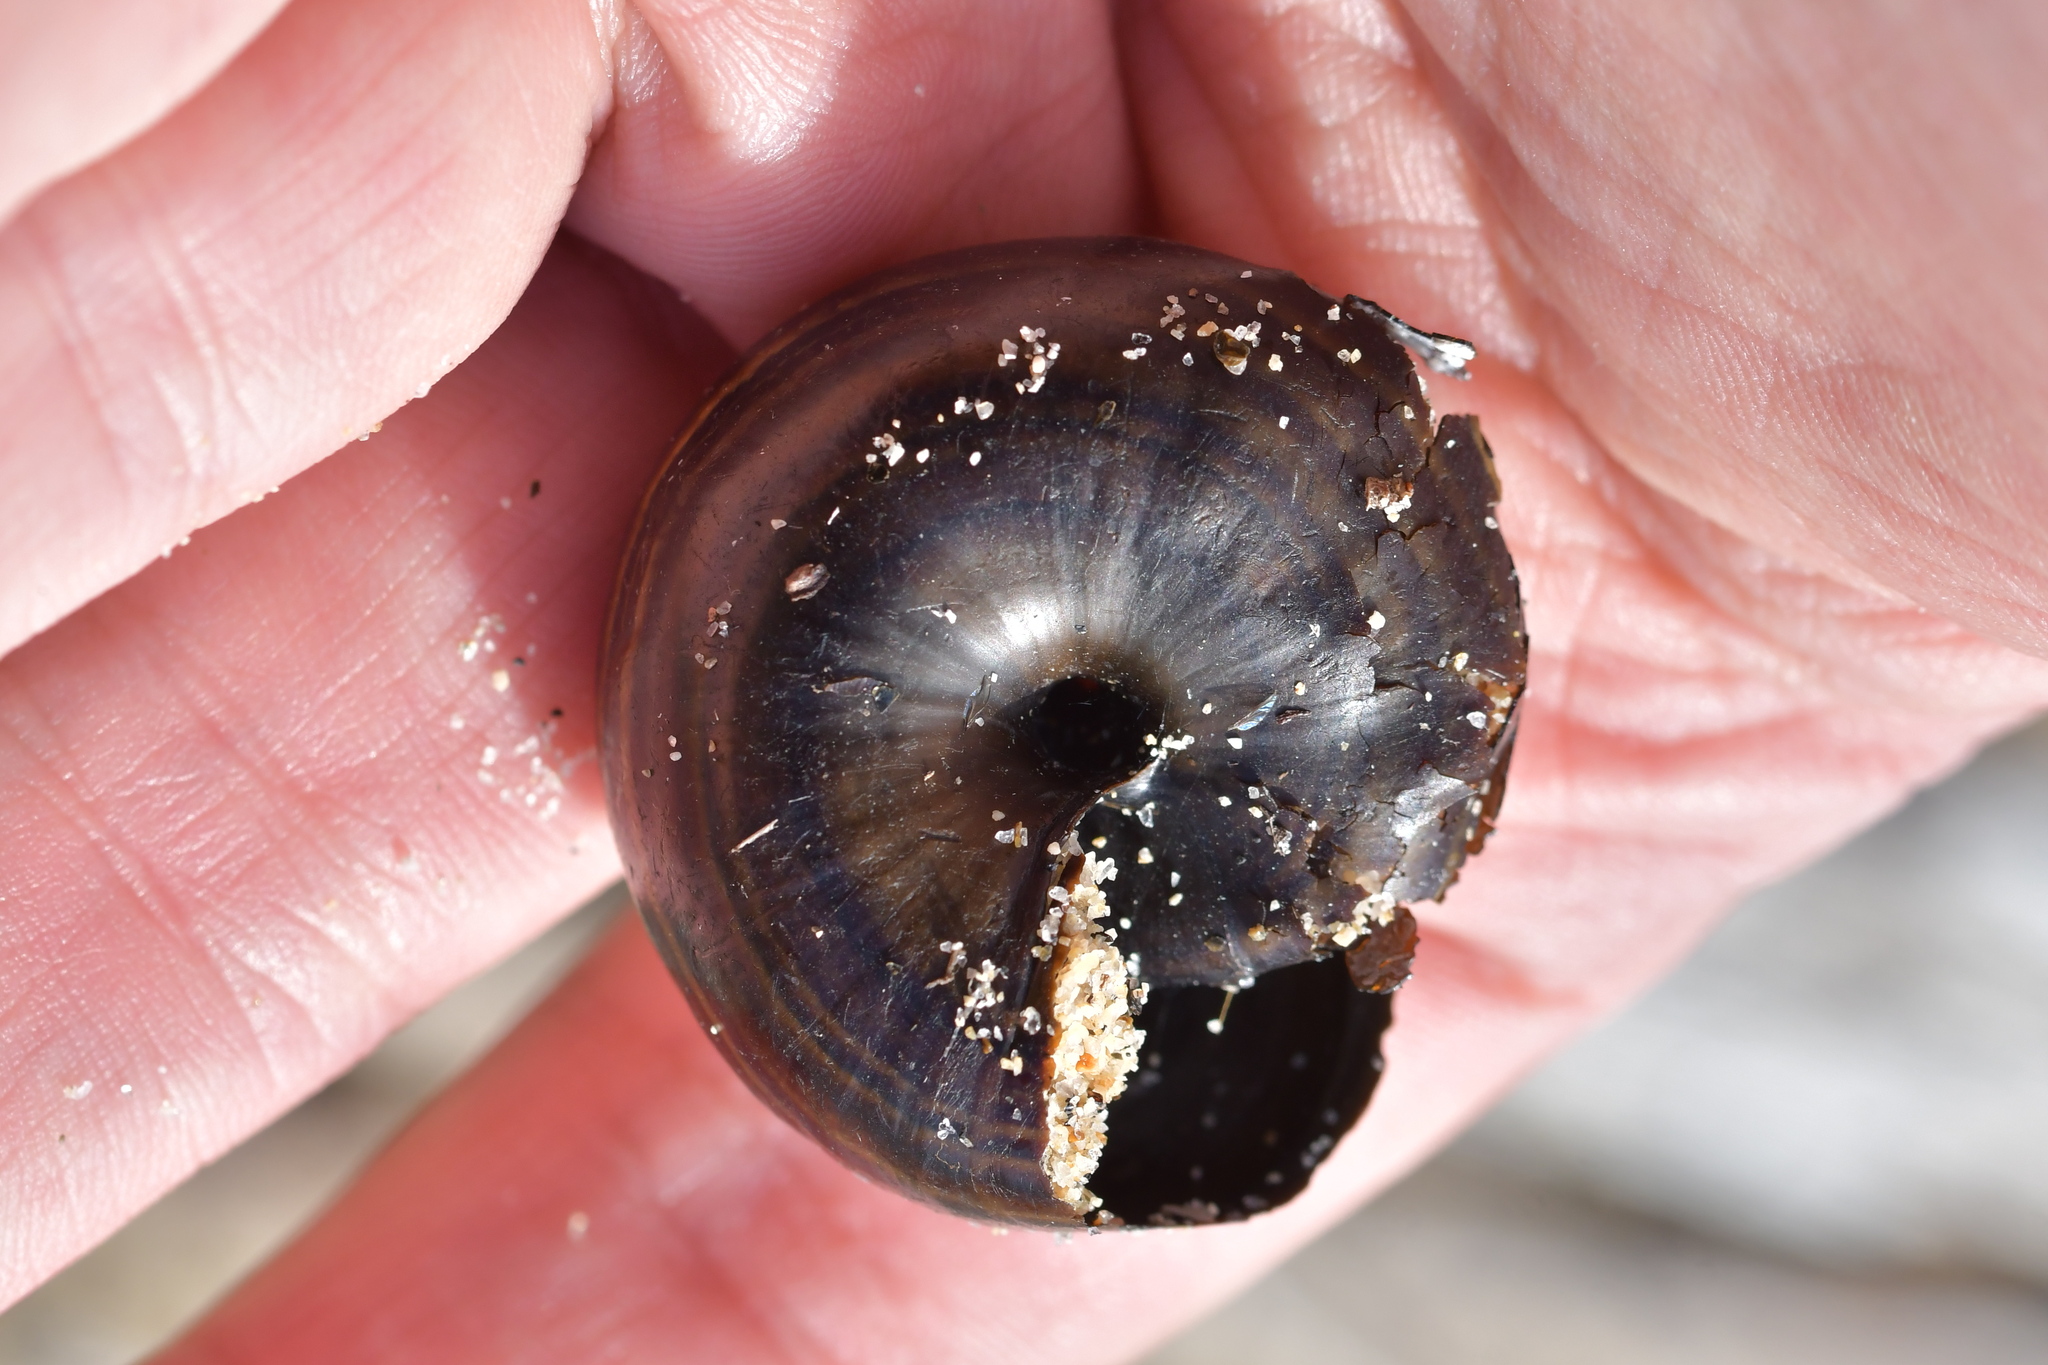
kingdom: Animalia
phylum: Mollusca
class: Gastropoda
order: Stylommatophora
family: Rhytididae
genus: Powelliphanta
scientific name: Powelliphanta hochstetteri
